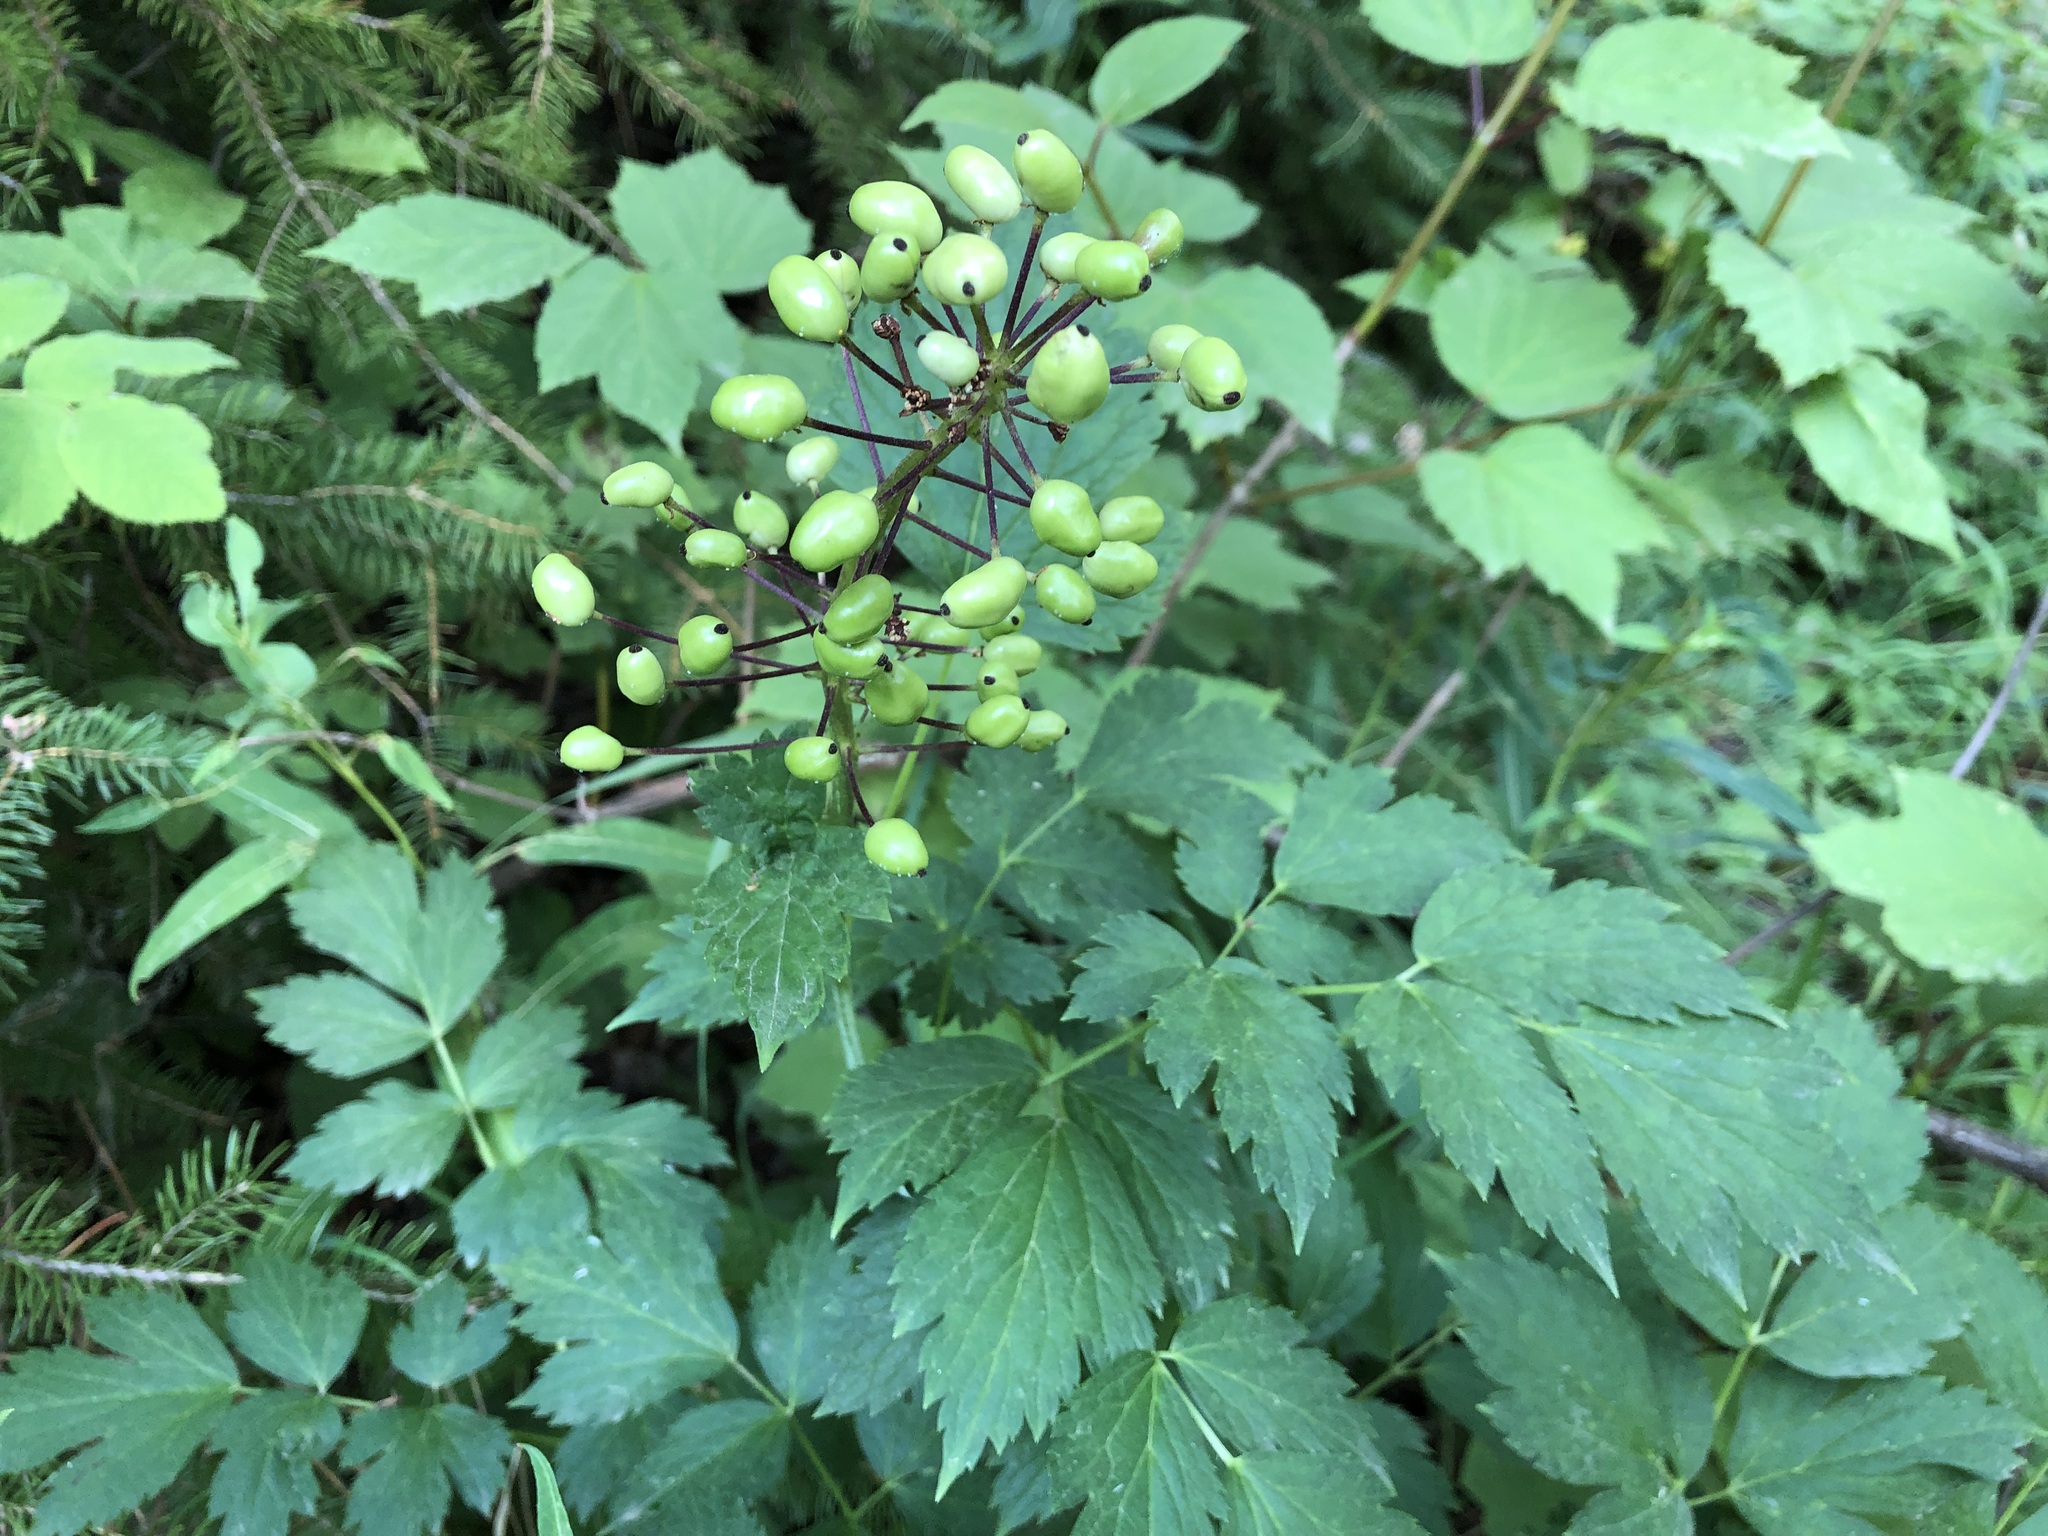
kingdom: Plantae
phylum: Tracheophyta
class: Magnoliopsida
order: Ranunculales
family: Ranunculaceae
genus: Actaea
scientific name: Actaea rubra
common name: Red baneberry
